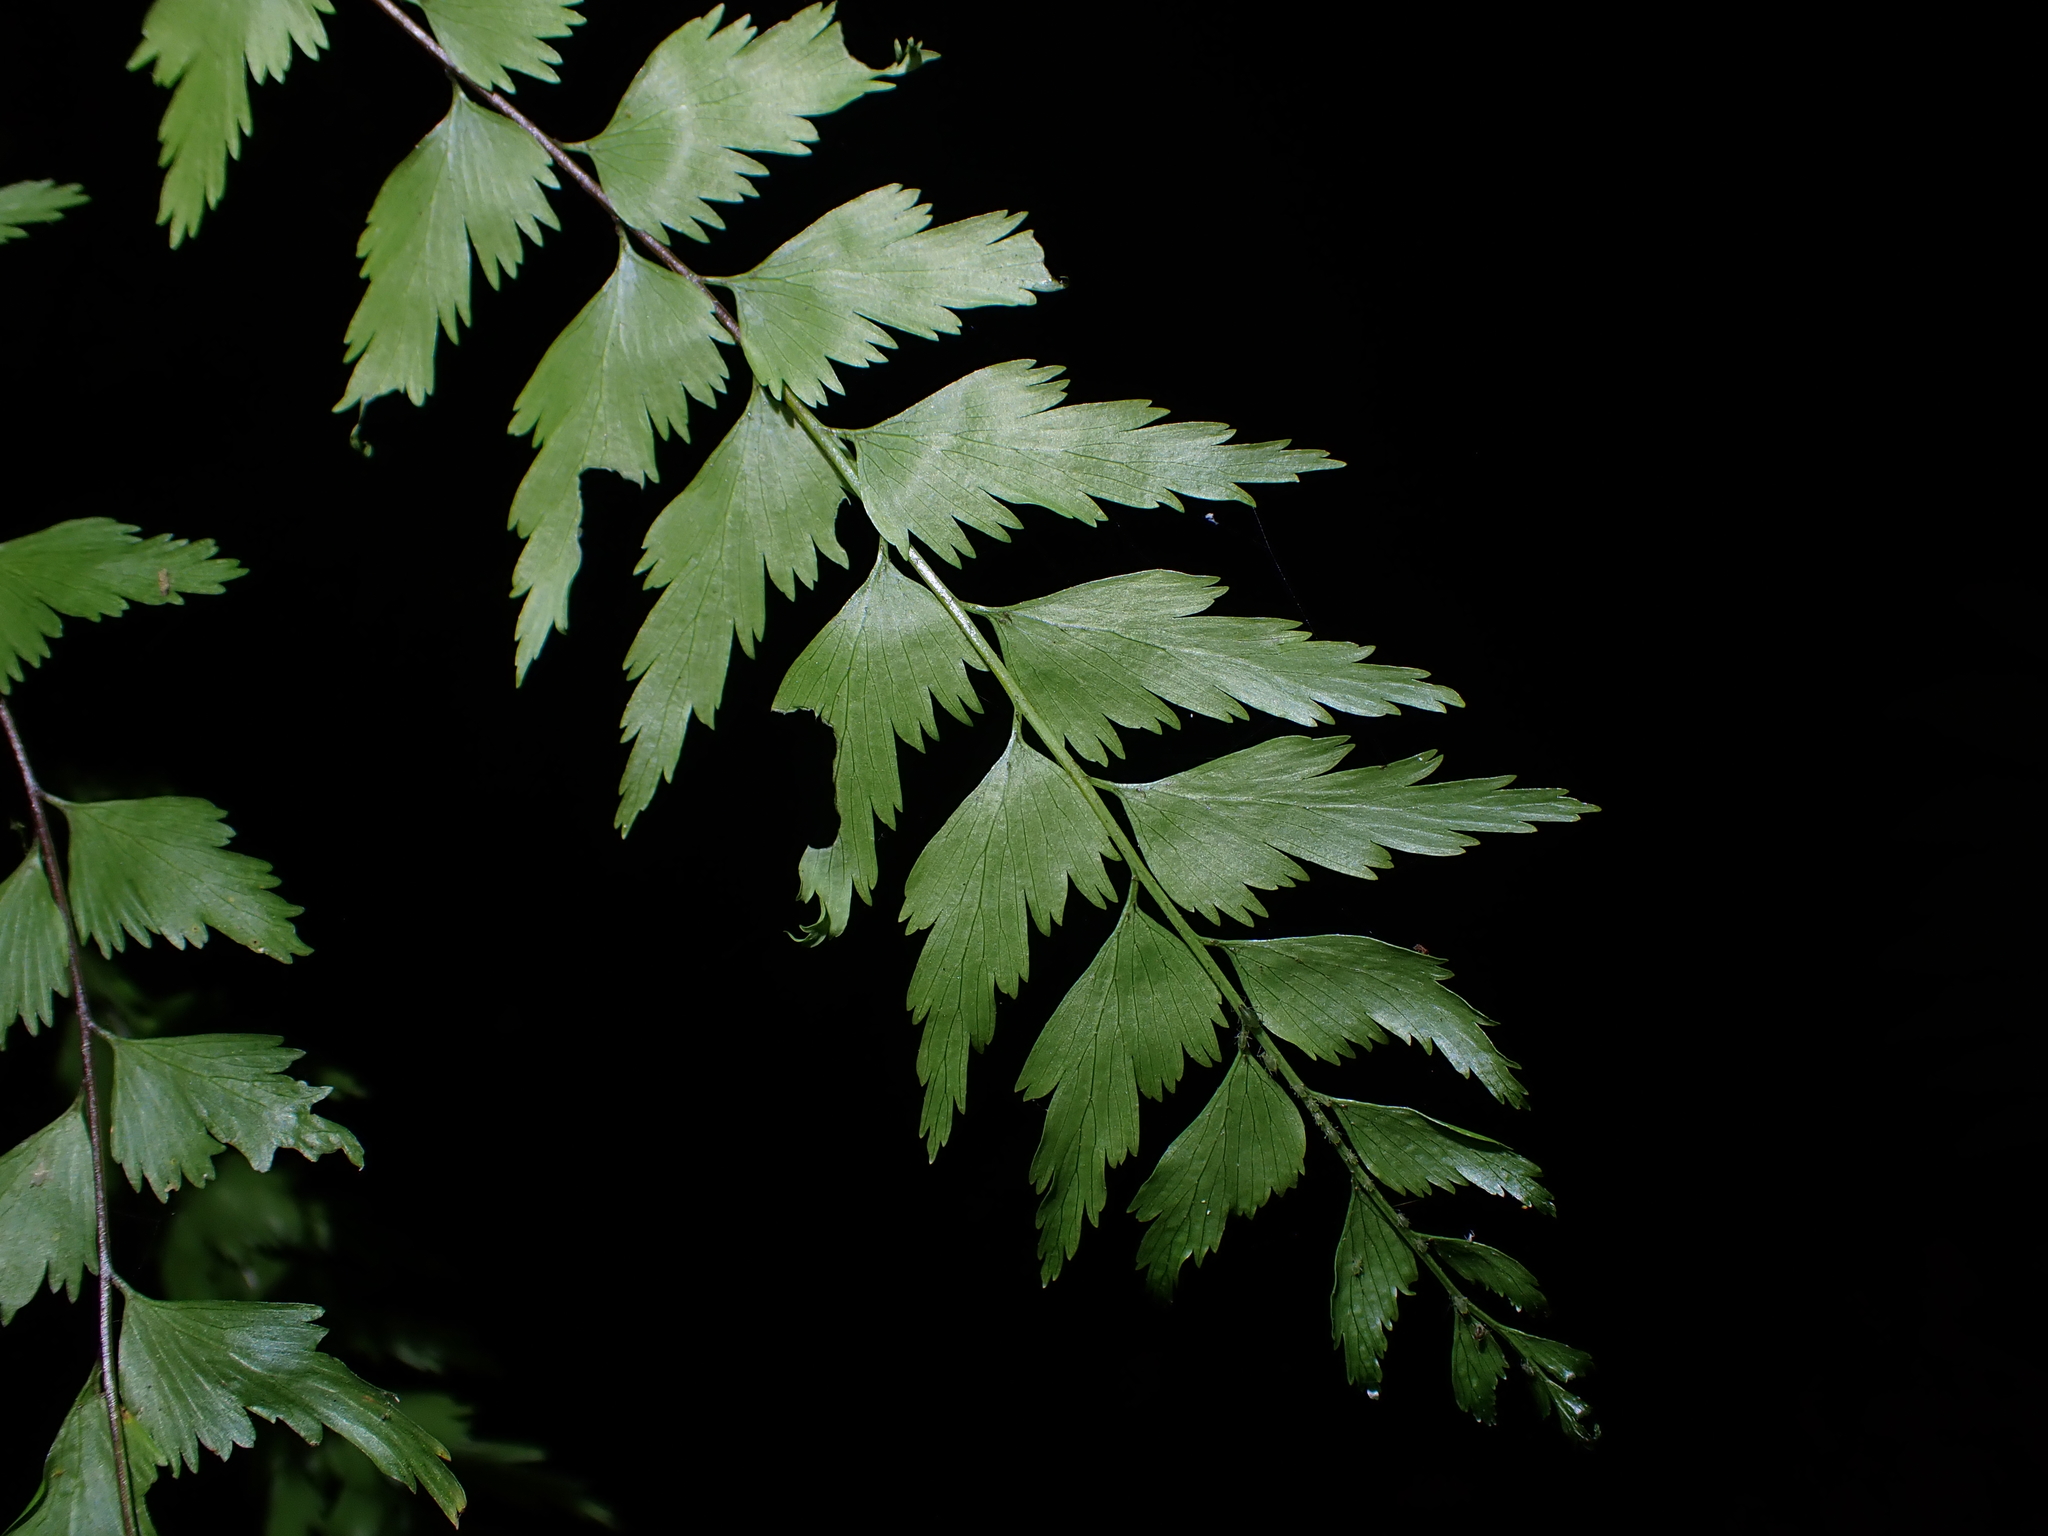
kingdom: Plantae
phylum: Tracheophyta
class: Polypodiopsida
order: Polypodiales
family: Aspleniaceae
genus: Asplenium
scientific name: Asplenium polyodon
